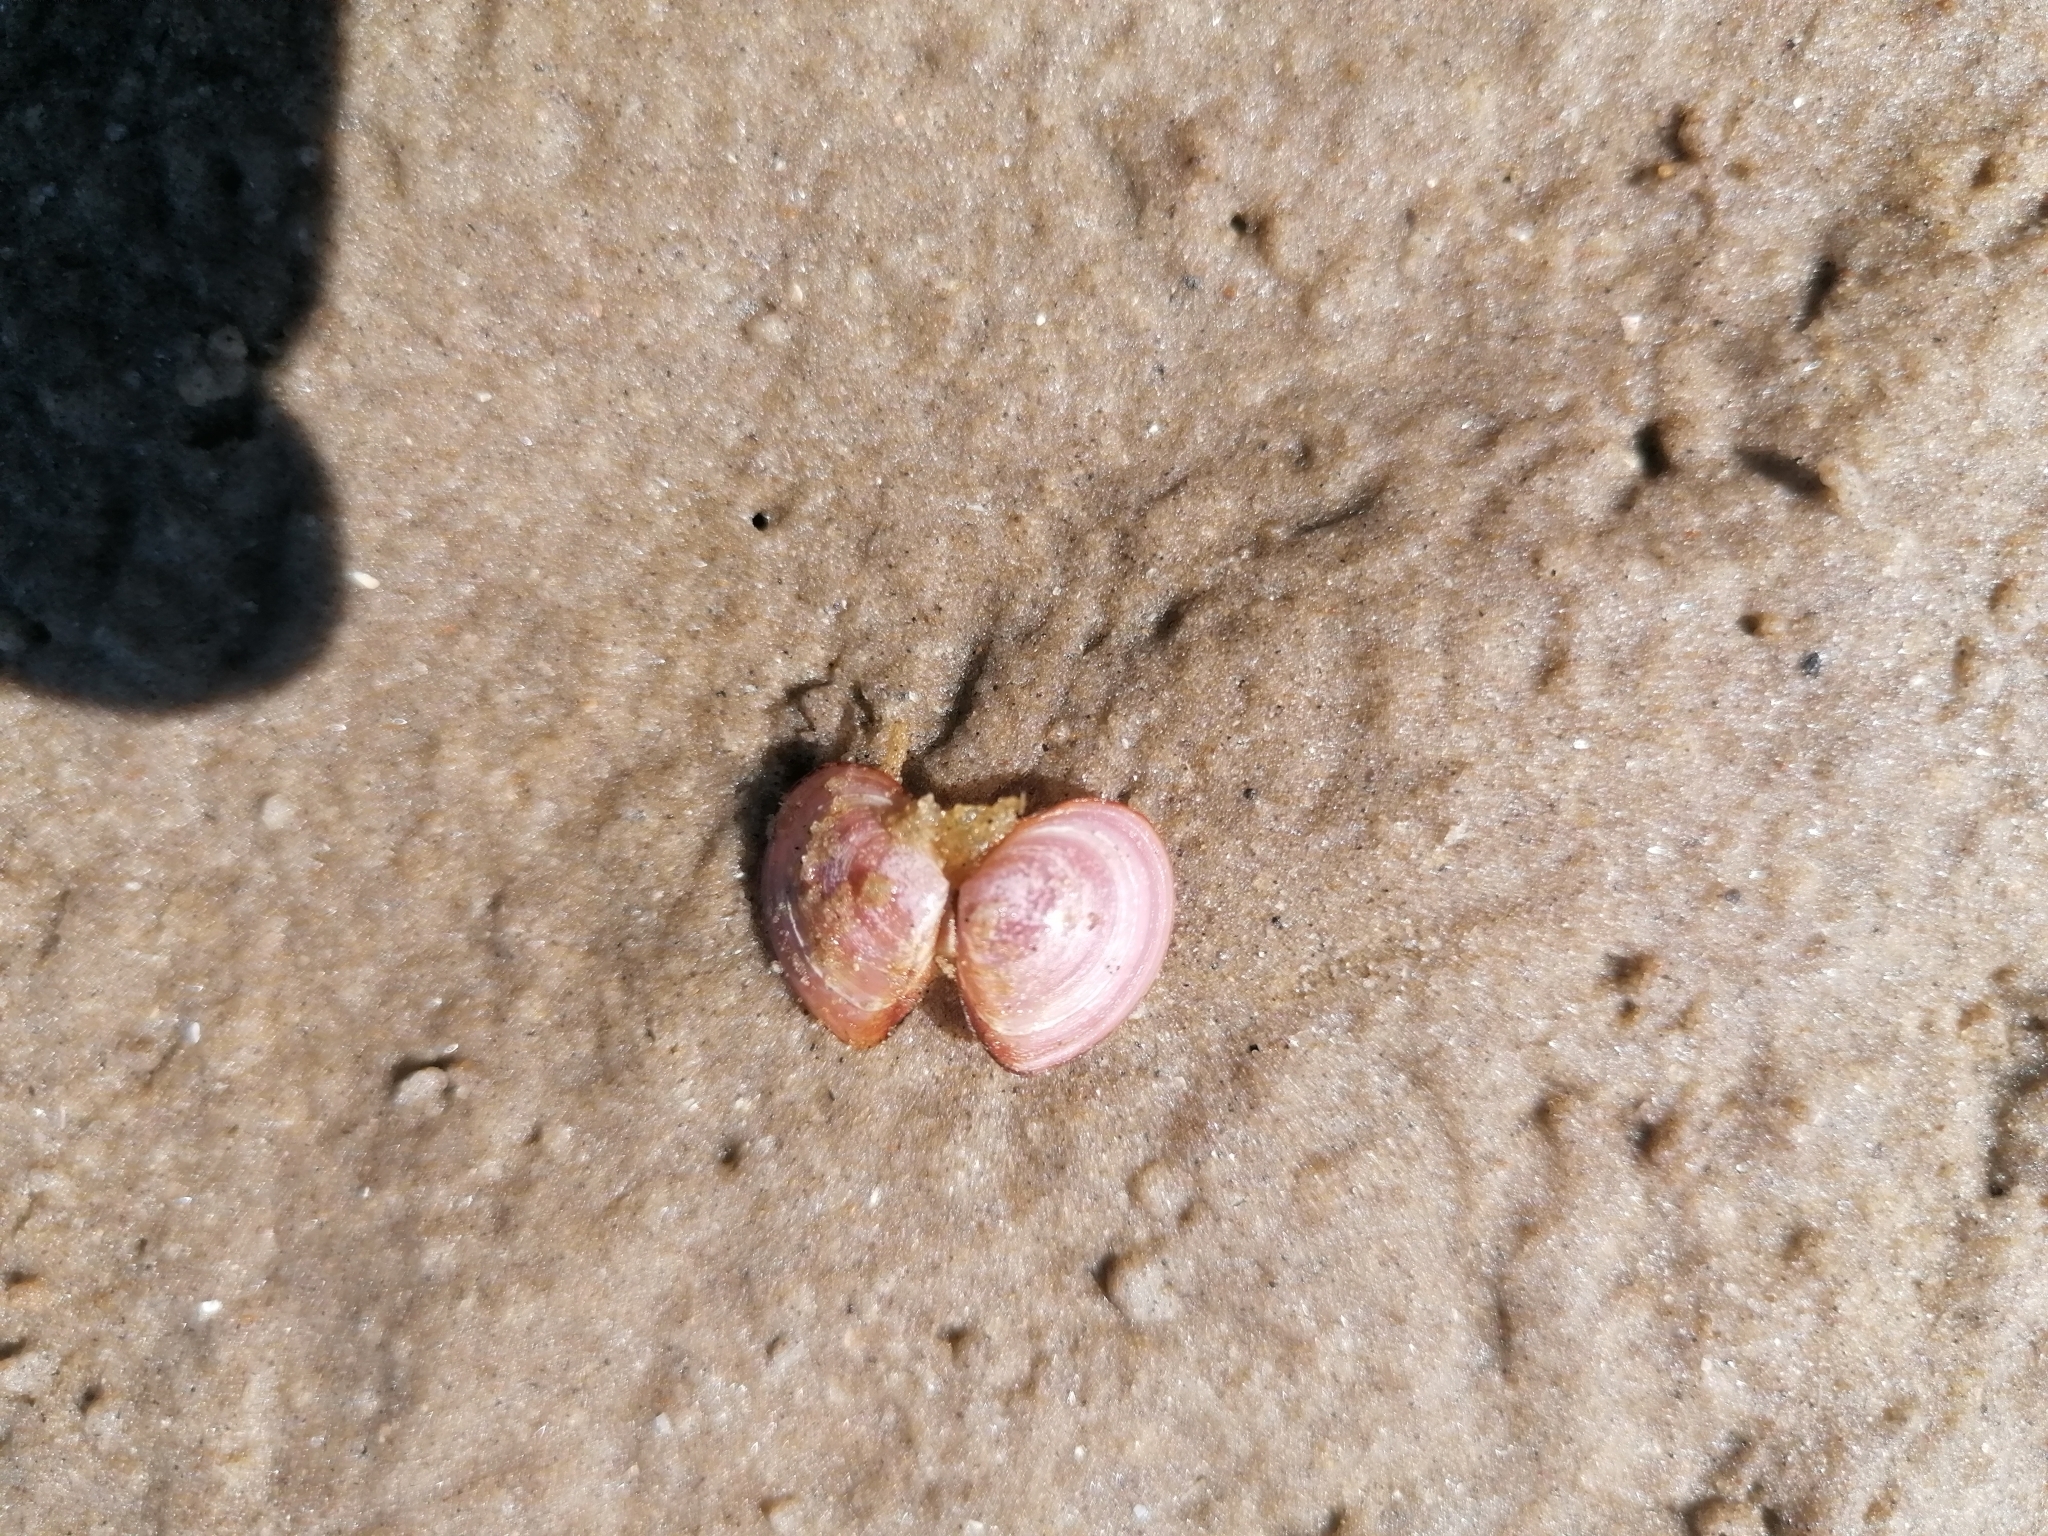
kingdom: Animalia
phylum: Mollusca
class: Bivalvia
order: Cardiida
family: Tellinidae
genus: Macoma
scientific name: Macoma balthica
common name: Baltic tellin
